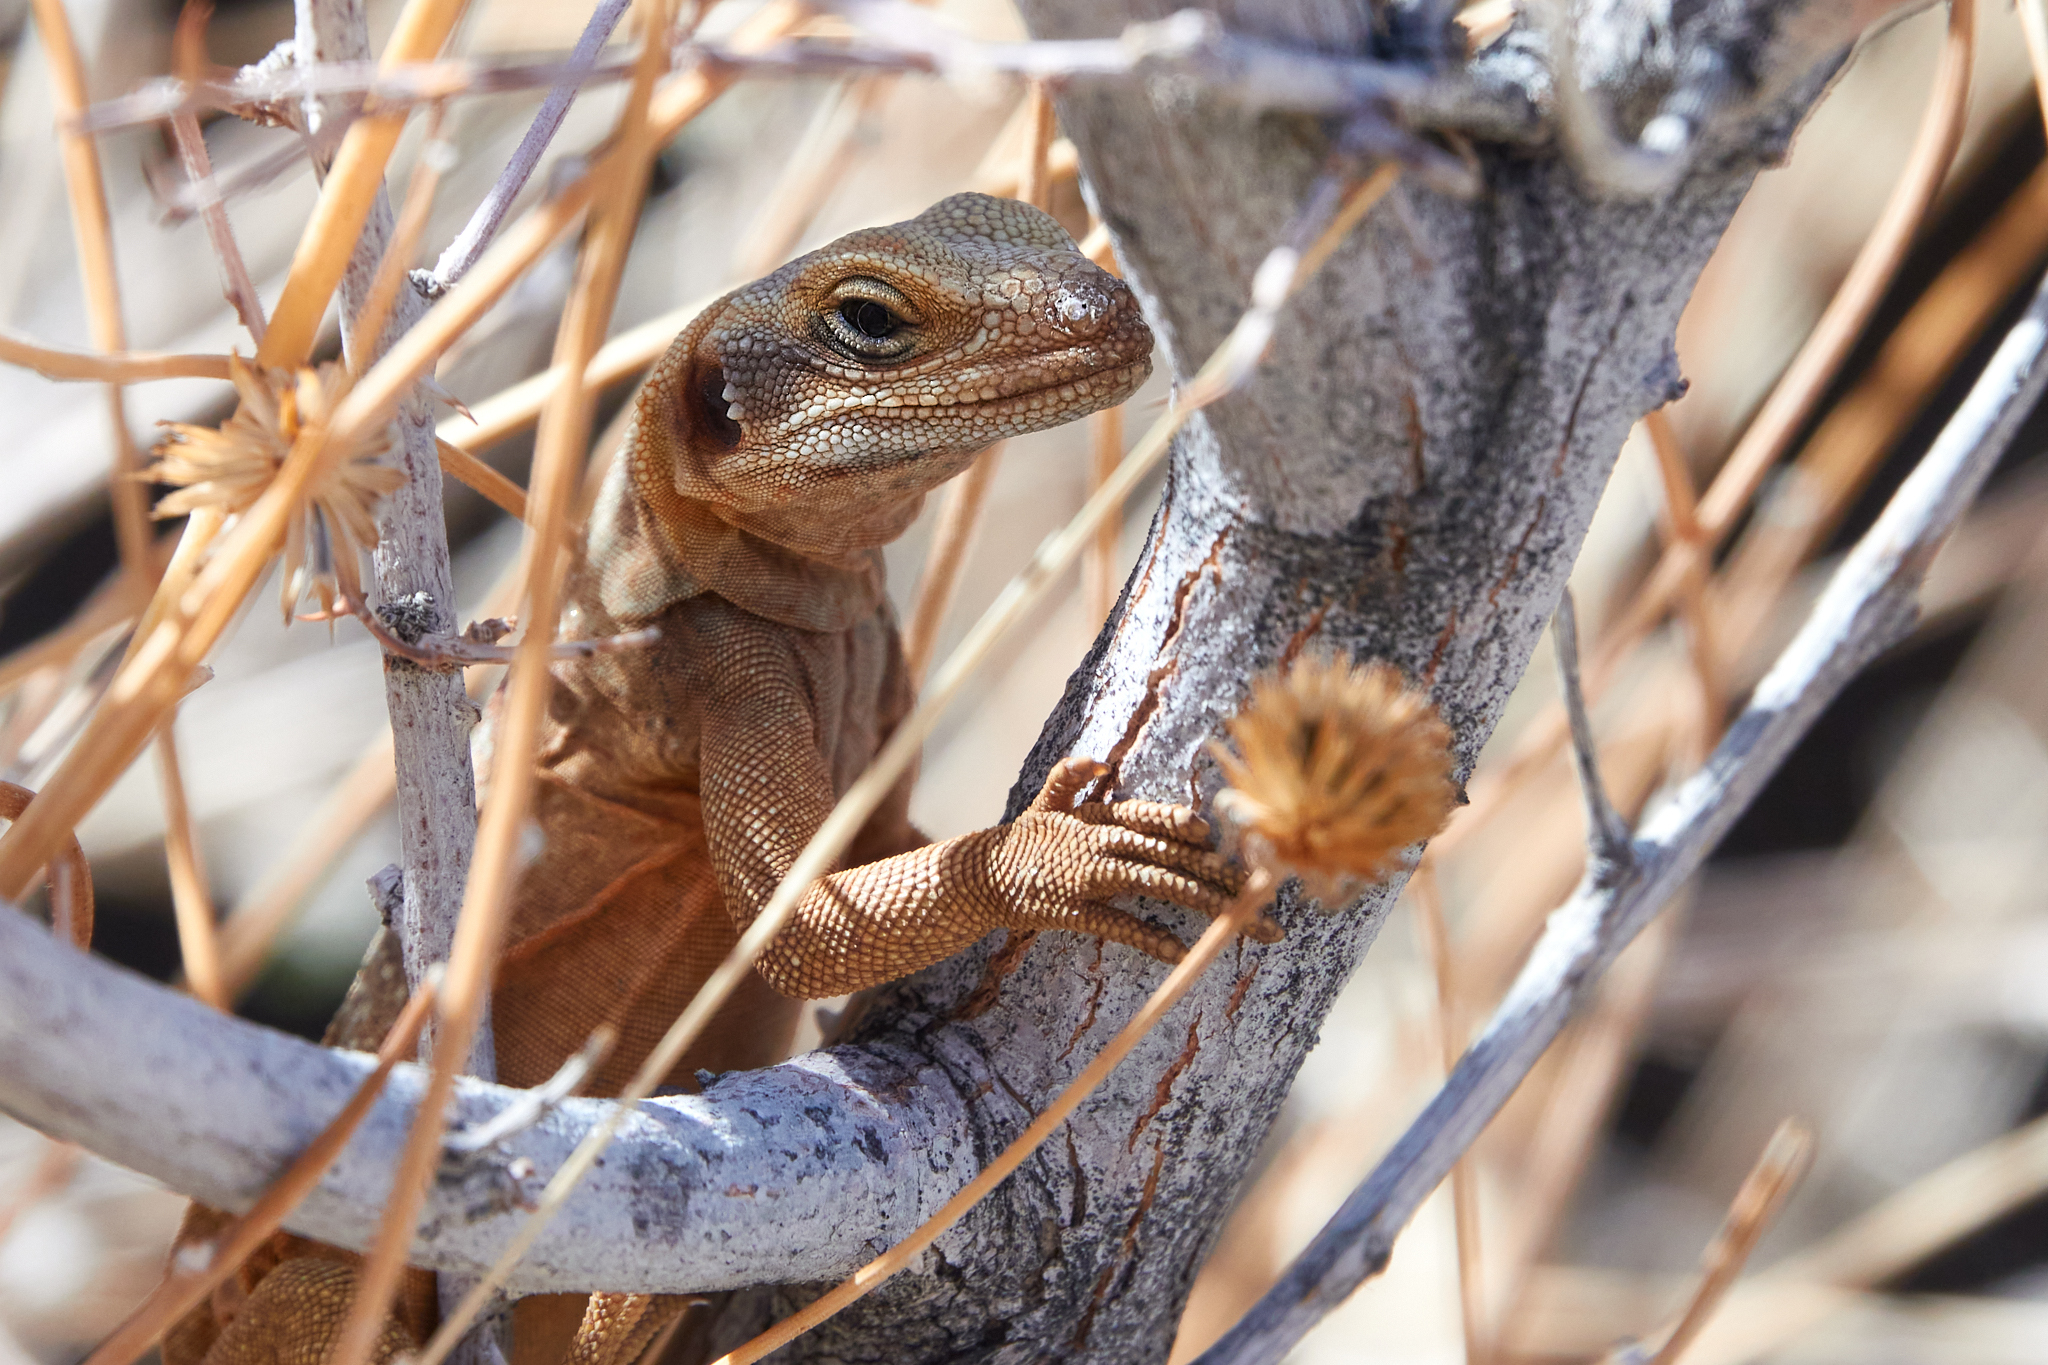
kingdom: Animalia
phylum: Chordata
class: Squamata
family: Iguanidae
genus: Sauromalus
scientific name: Sauromalus ater
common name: Northern chuckwalla
